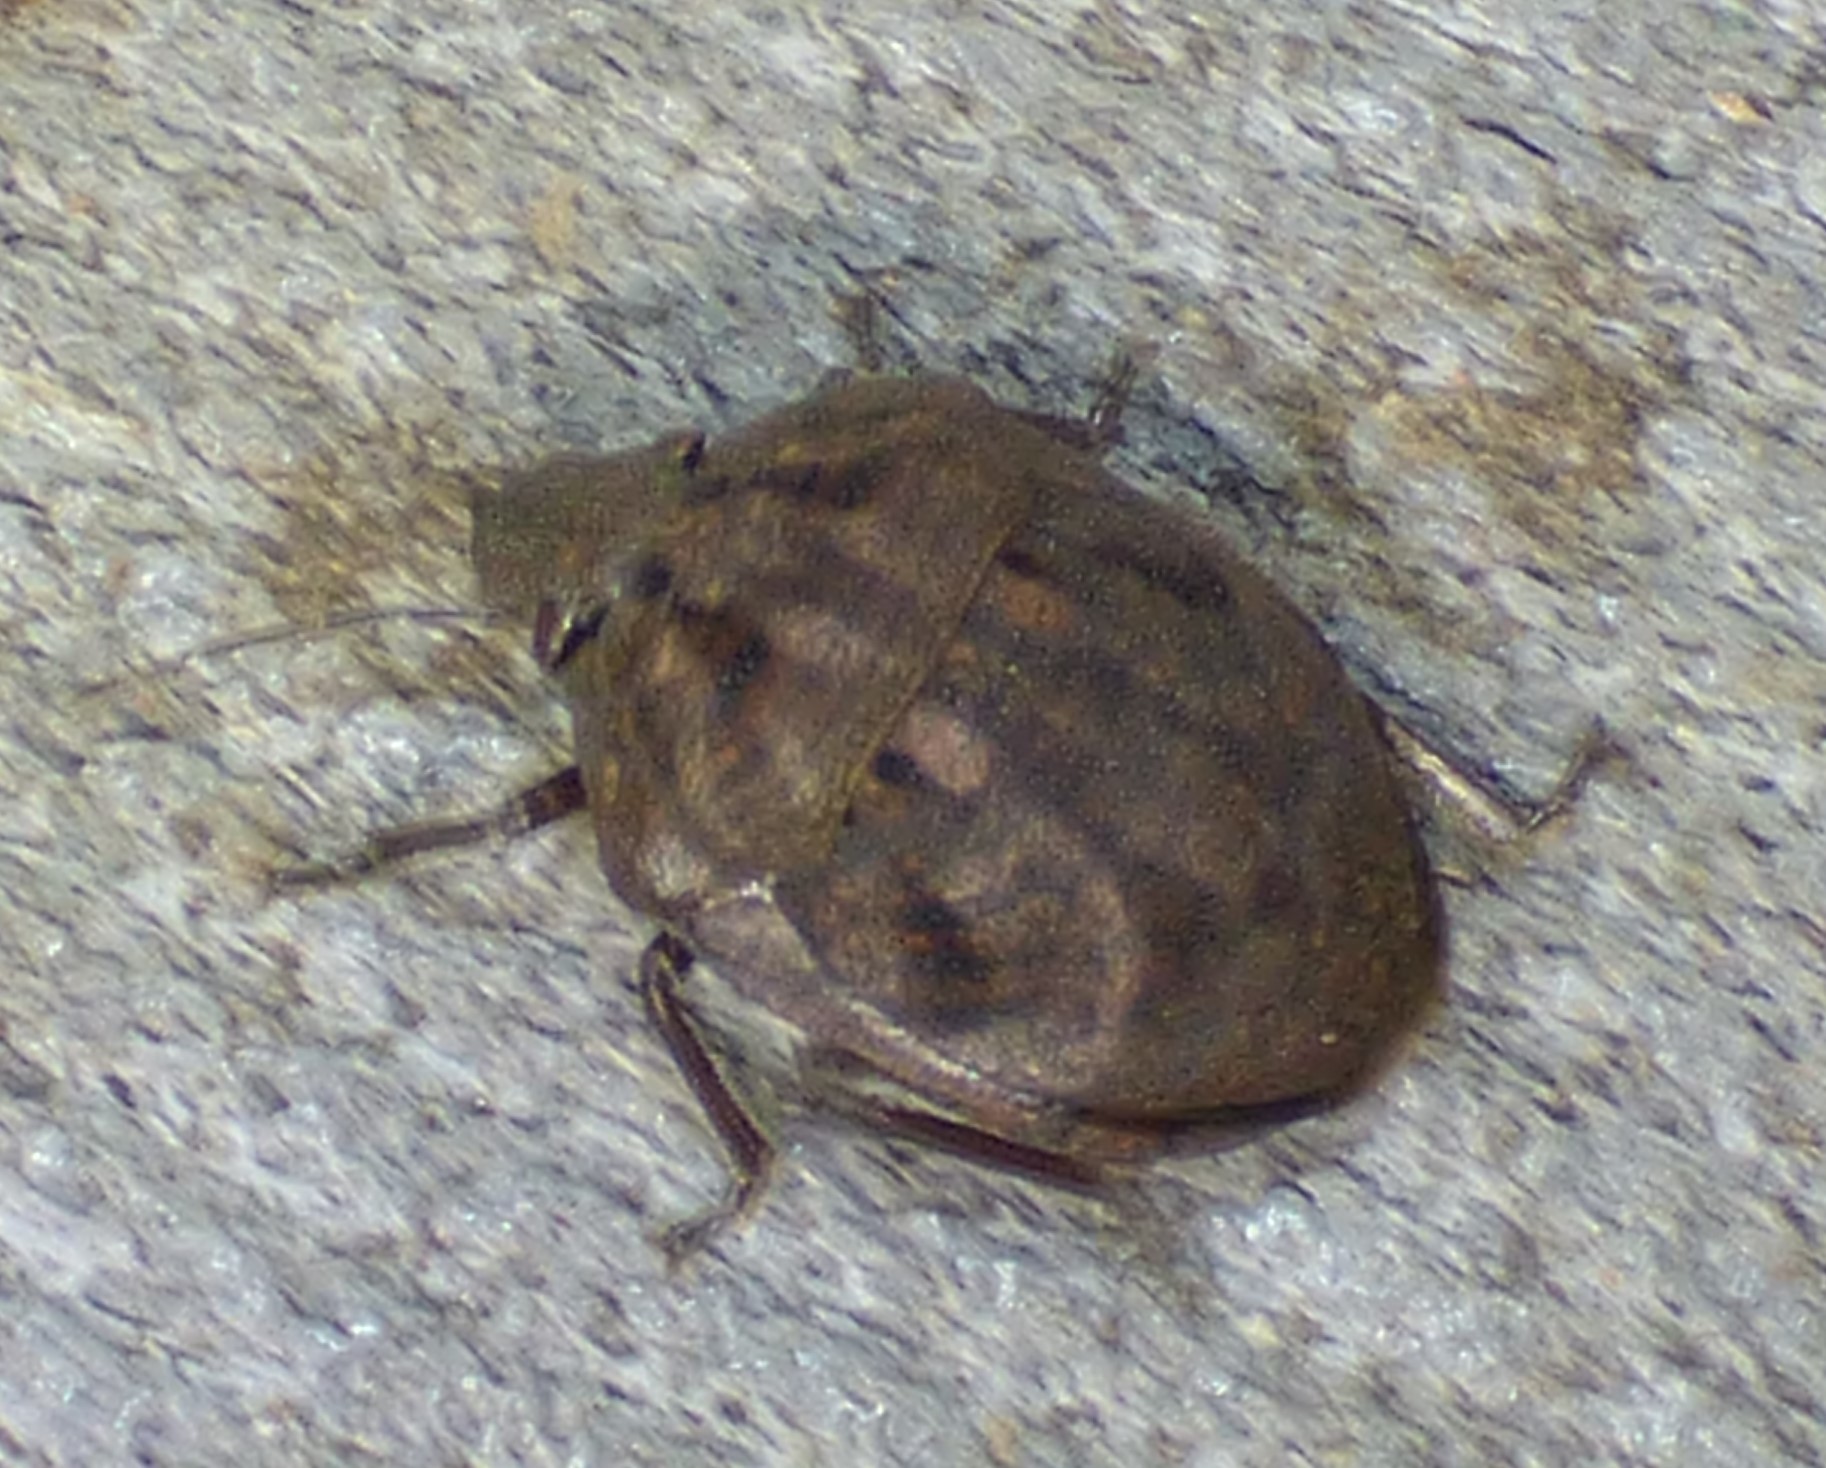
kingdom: Animalia
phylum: Arthropoda
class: Insecta
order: Hemiptera
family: Scutelleridae
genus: Tetyra
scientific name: Tetyra bipunctata
